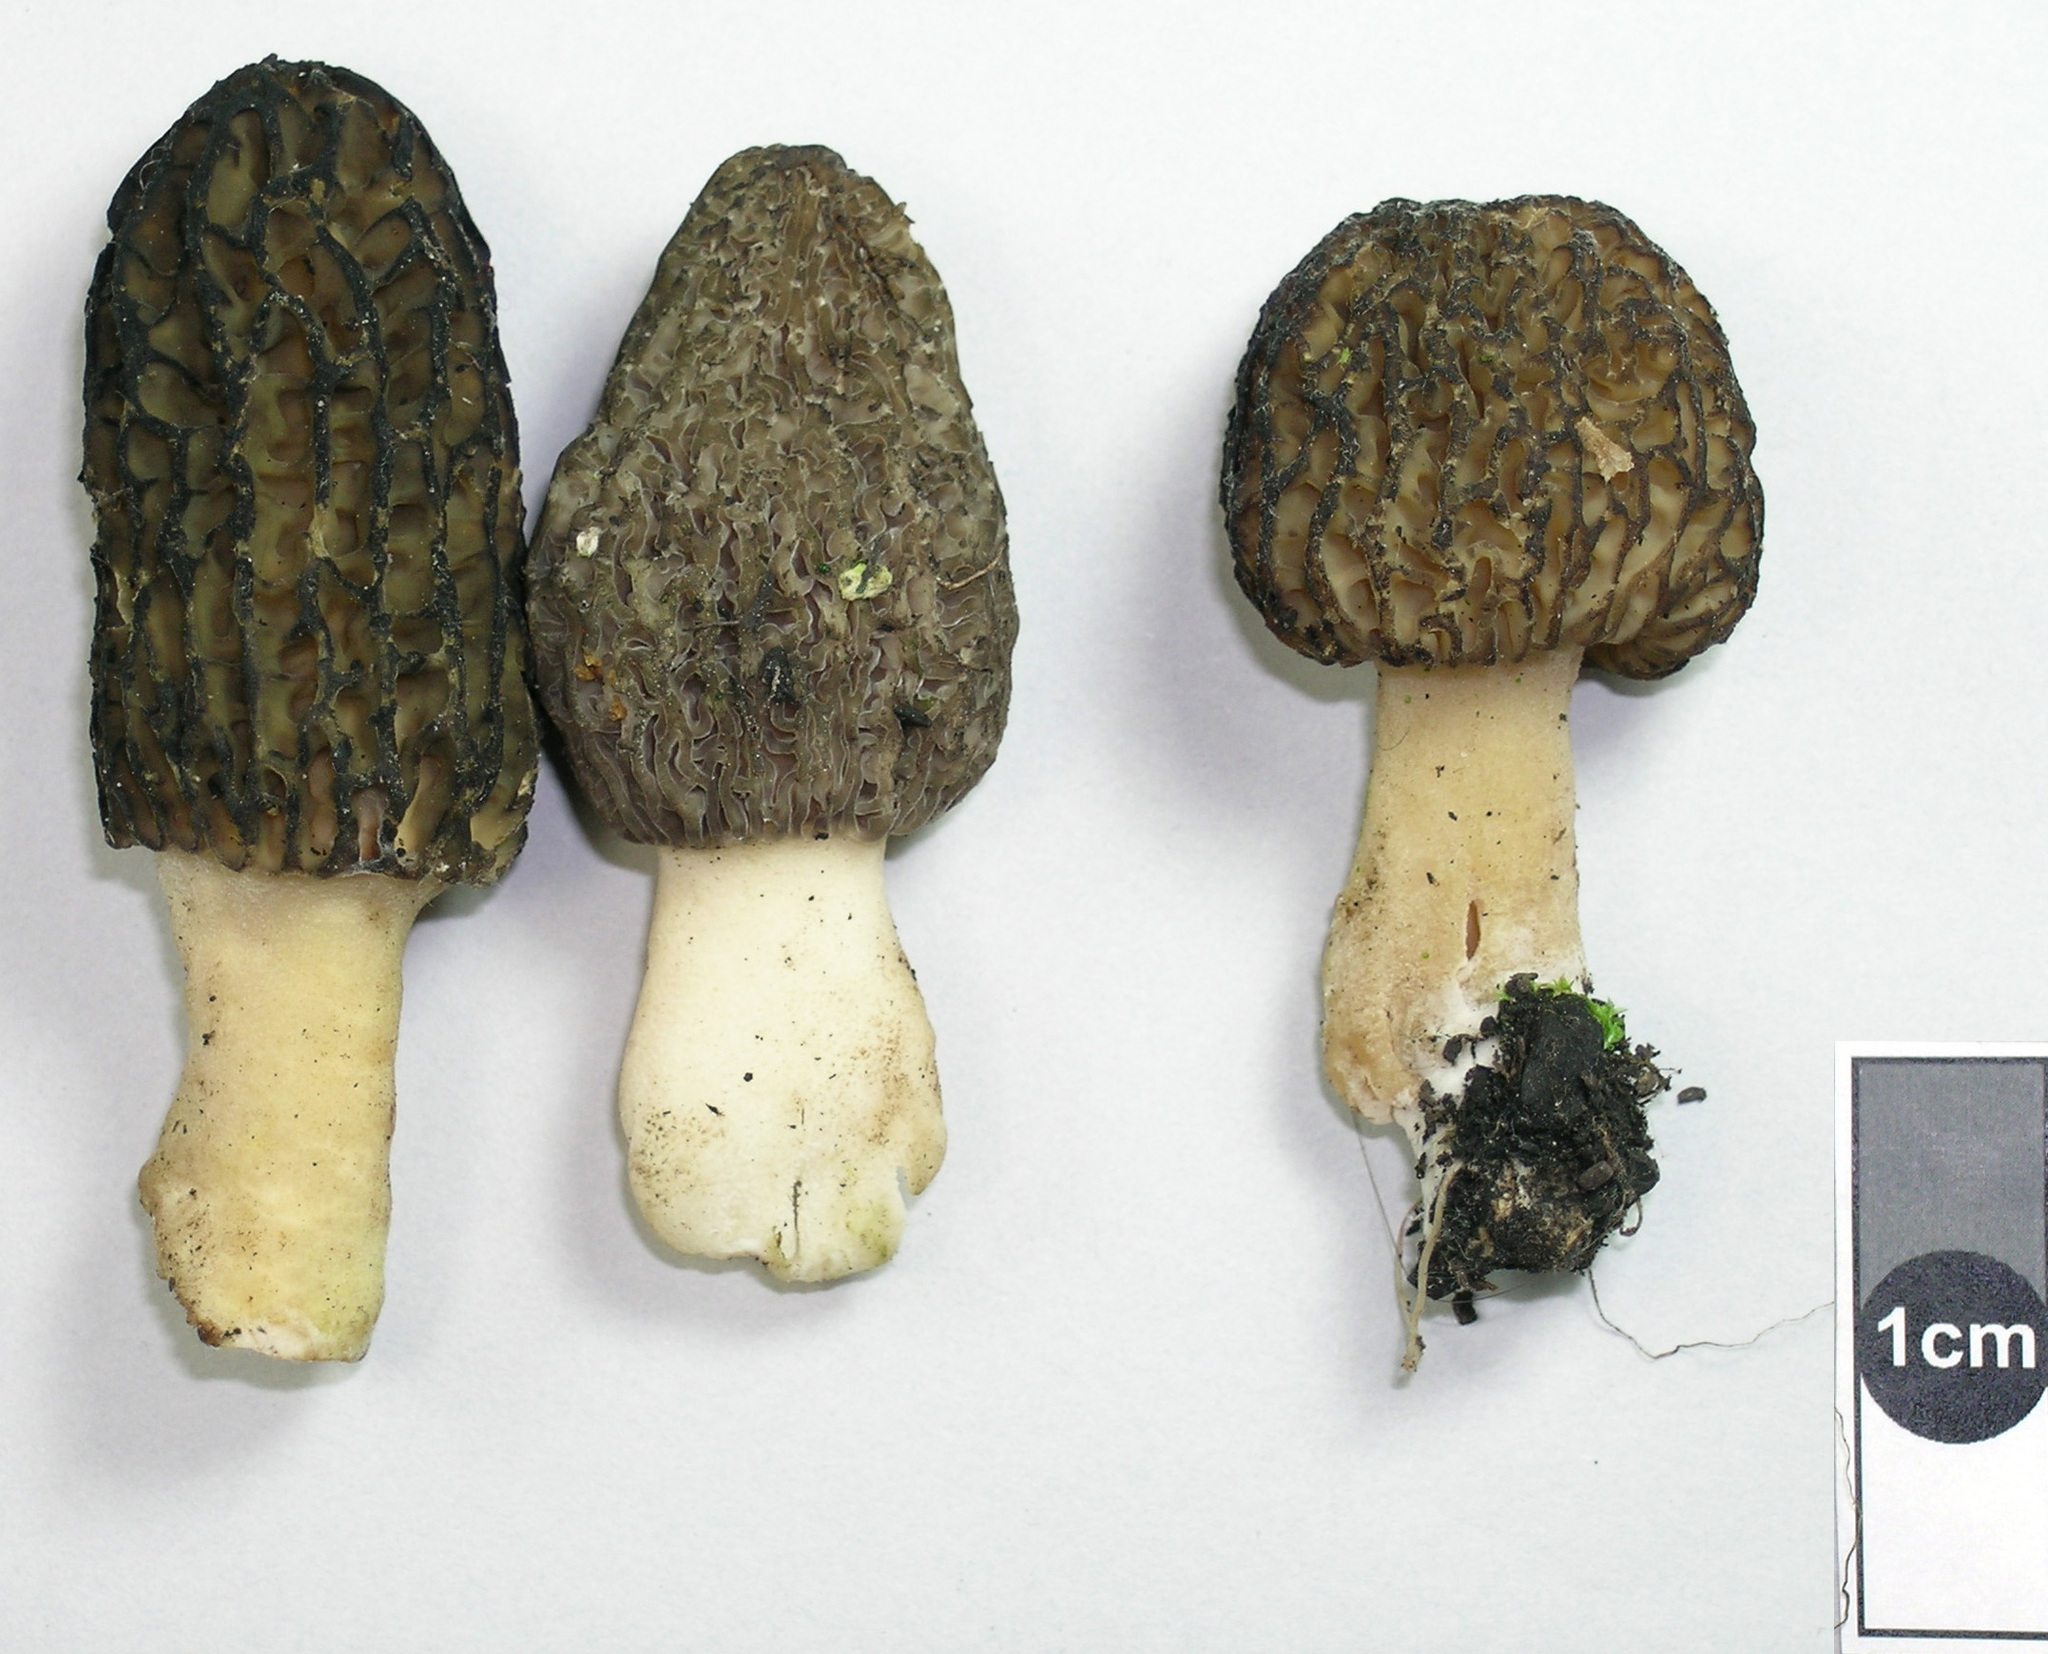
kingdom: Fungi
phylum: Ascomycota
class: Pezizomycetes
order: Pezizales
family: Morchellaceae
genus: Morchella
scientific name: Morchella importuna
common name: Landscaping black morel
